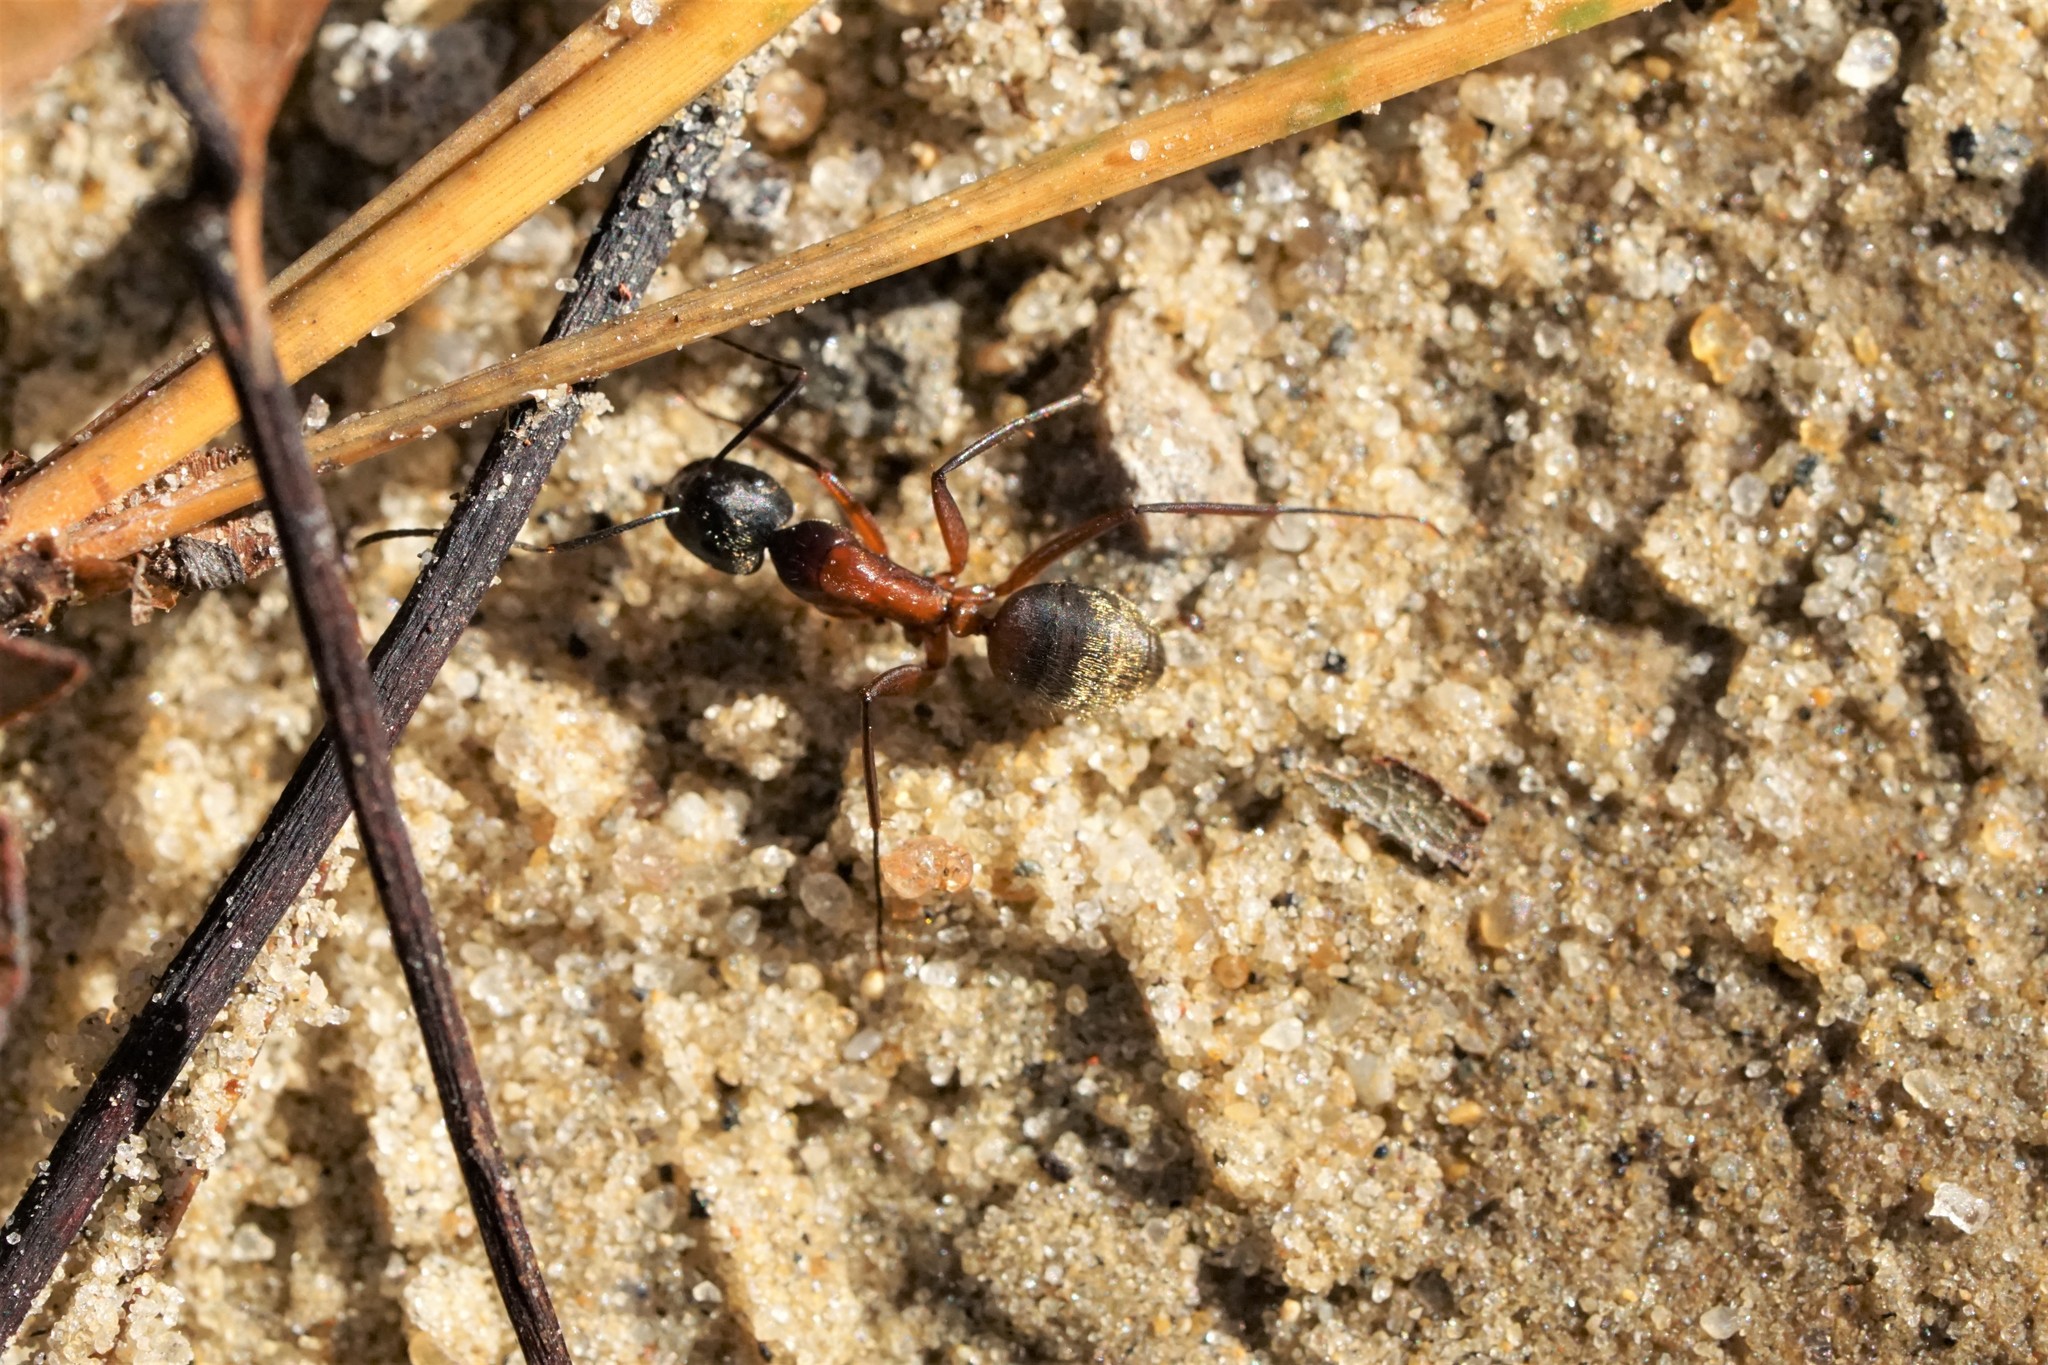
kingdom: Animalia
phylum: Arthropoda
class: Insecta
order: Hymenoptera
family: Formicidae
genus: Camponotus
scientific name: Camponotus chromaiodes
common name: Red carpenter ant
